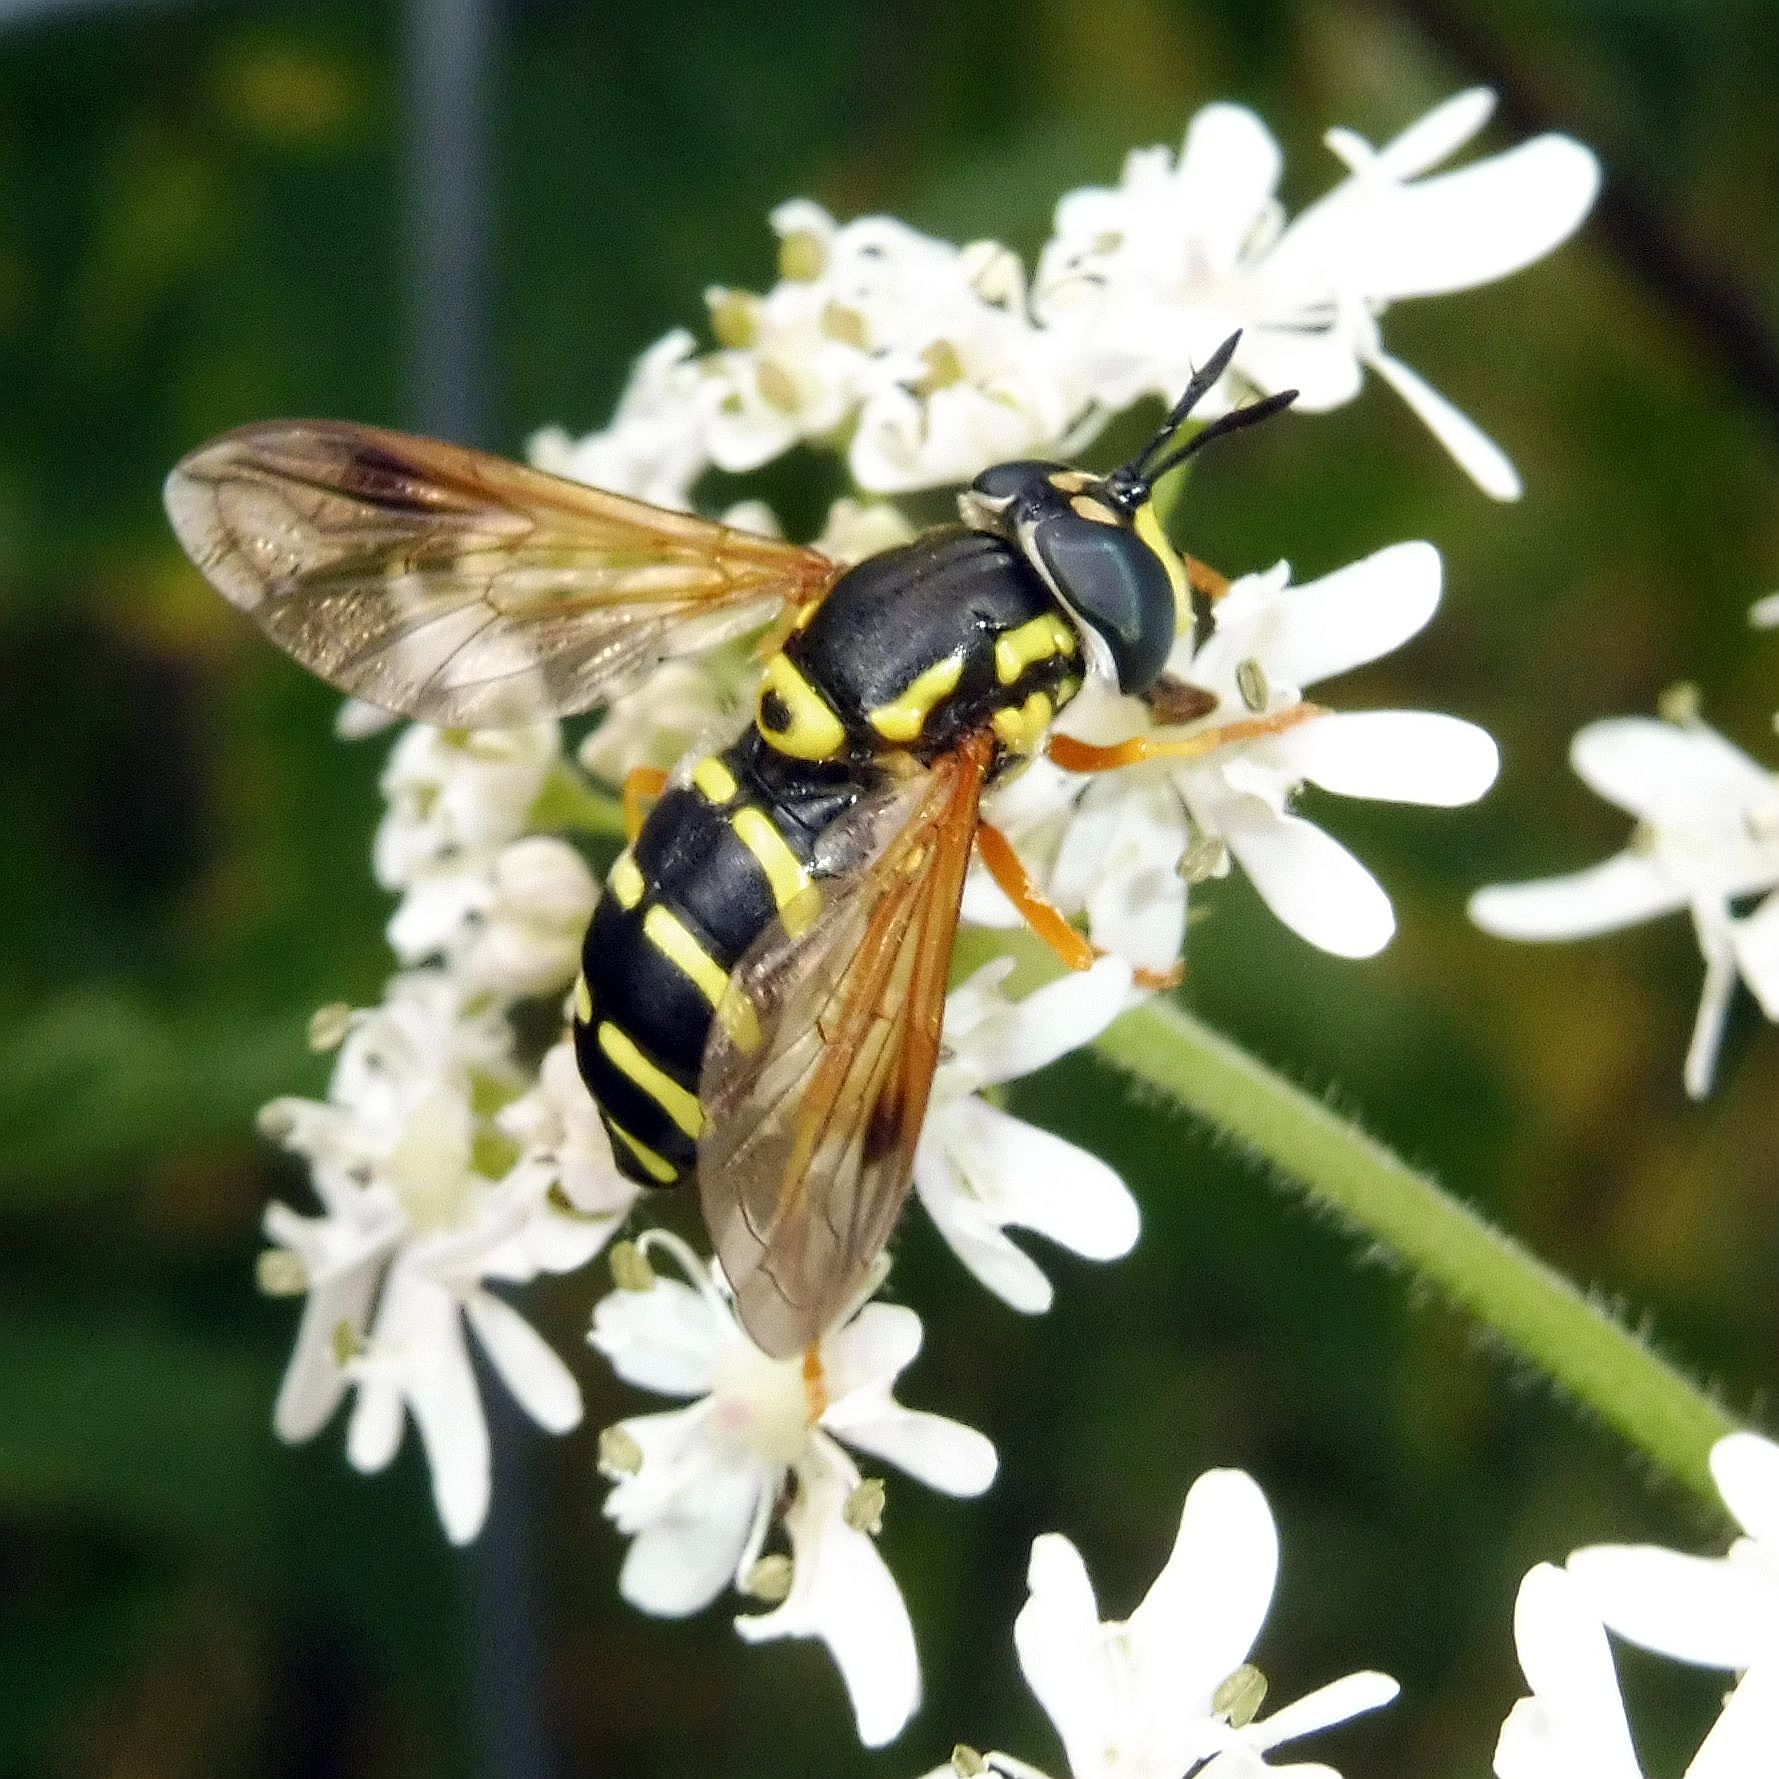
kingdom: Animalia
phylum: Arthropoda
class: Insecta
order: Diptera
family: Syrphidae
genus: Chrysotoxum
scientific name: Chrysotoxum festivum
